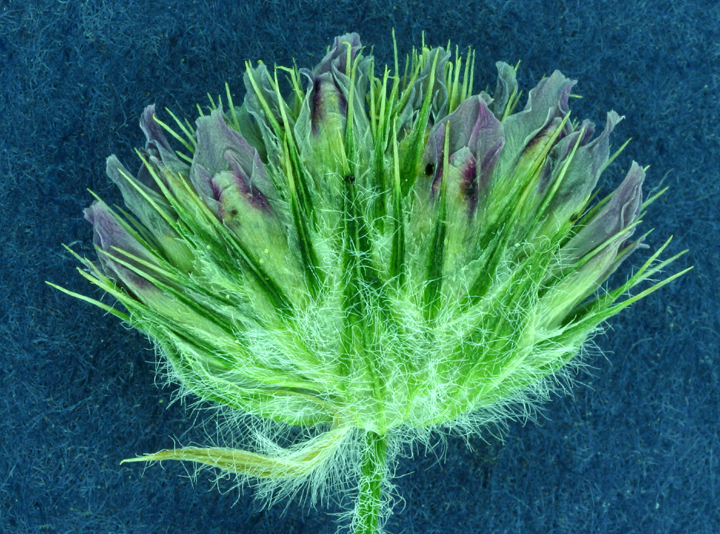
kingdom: Plantae
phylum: Tracheophyta
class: Magnoliopsida
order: Fabales
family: Fabaceae
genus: Trifolium
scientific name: Trifolium microcephalum
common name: Maiden clover
